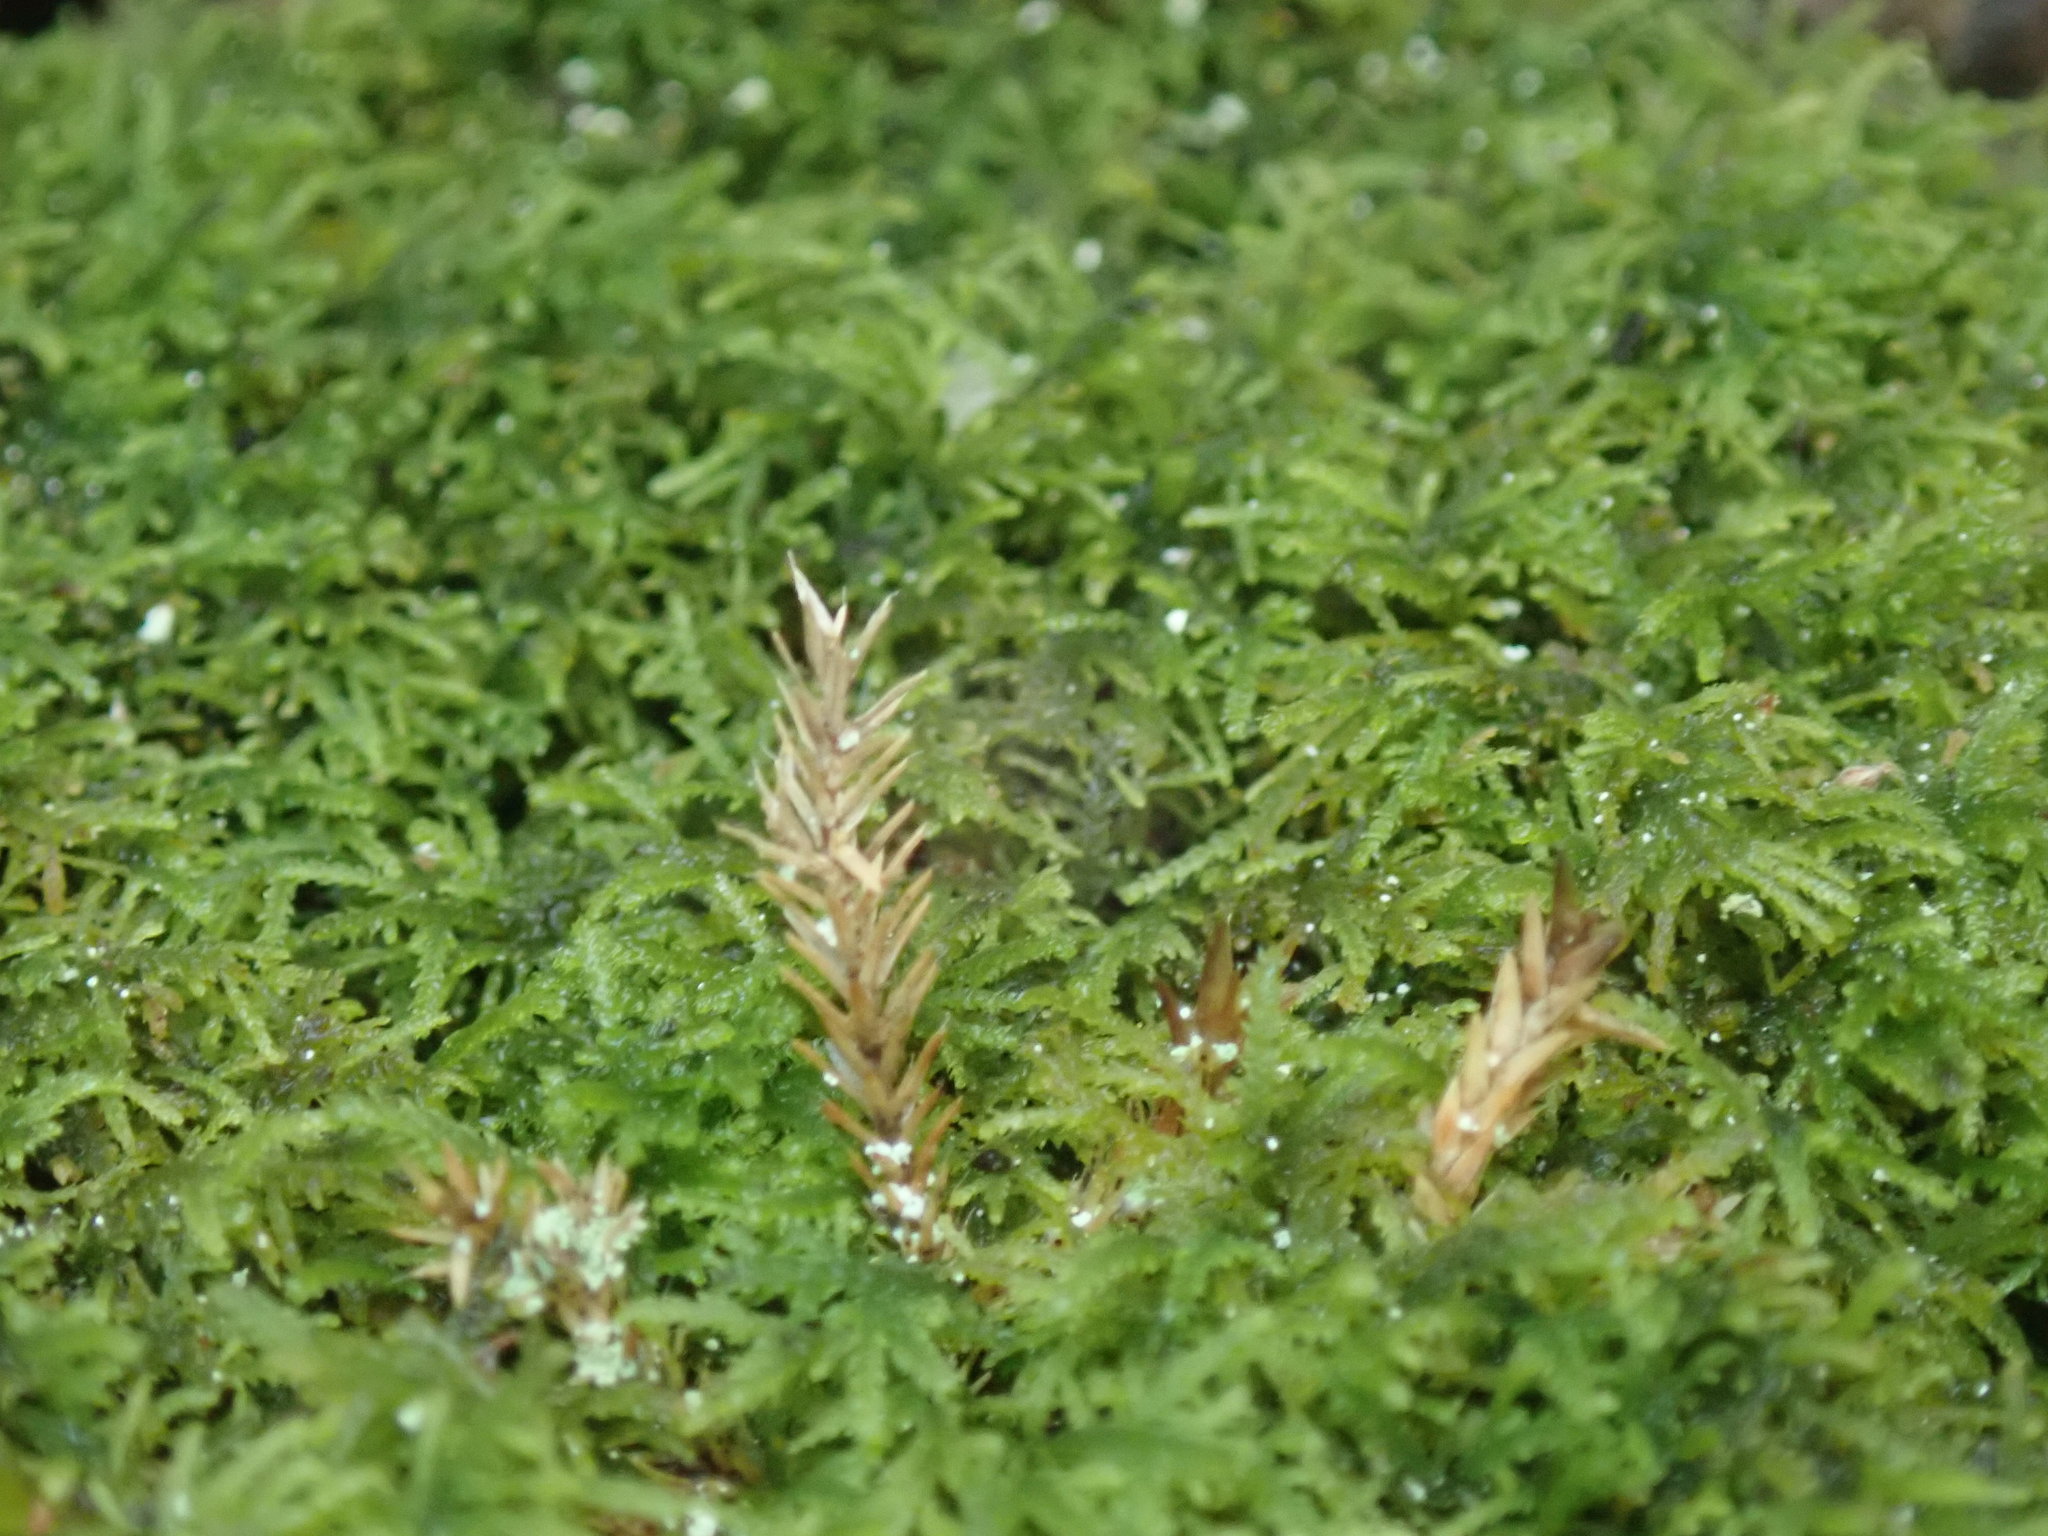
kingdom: Plantae
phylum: Bryophyta
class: Bryopsida
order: Hypnales
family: Lembophyllaceae
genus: Heterocladium
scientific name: Heterocladium macounii
